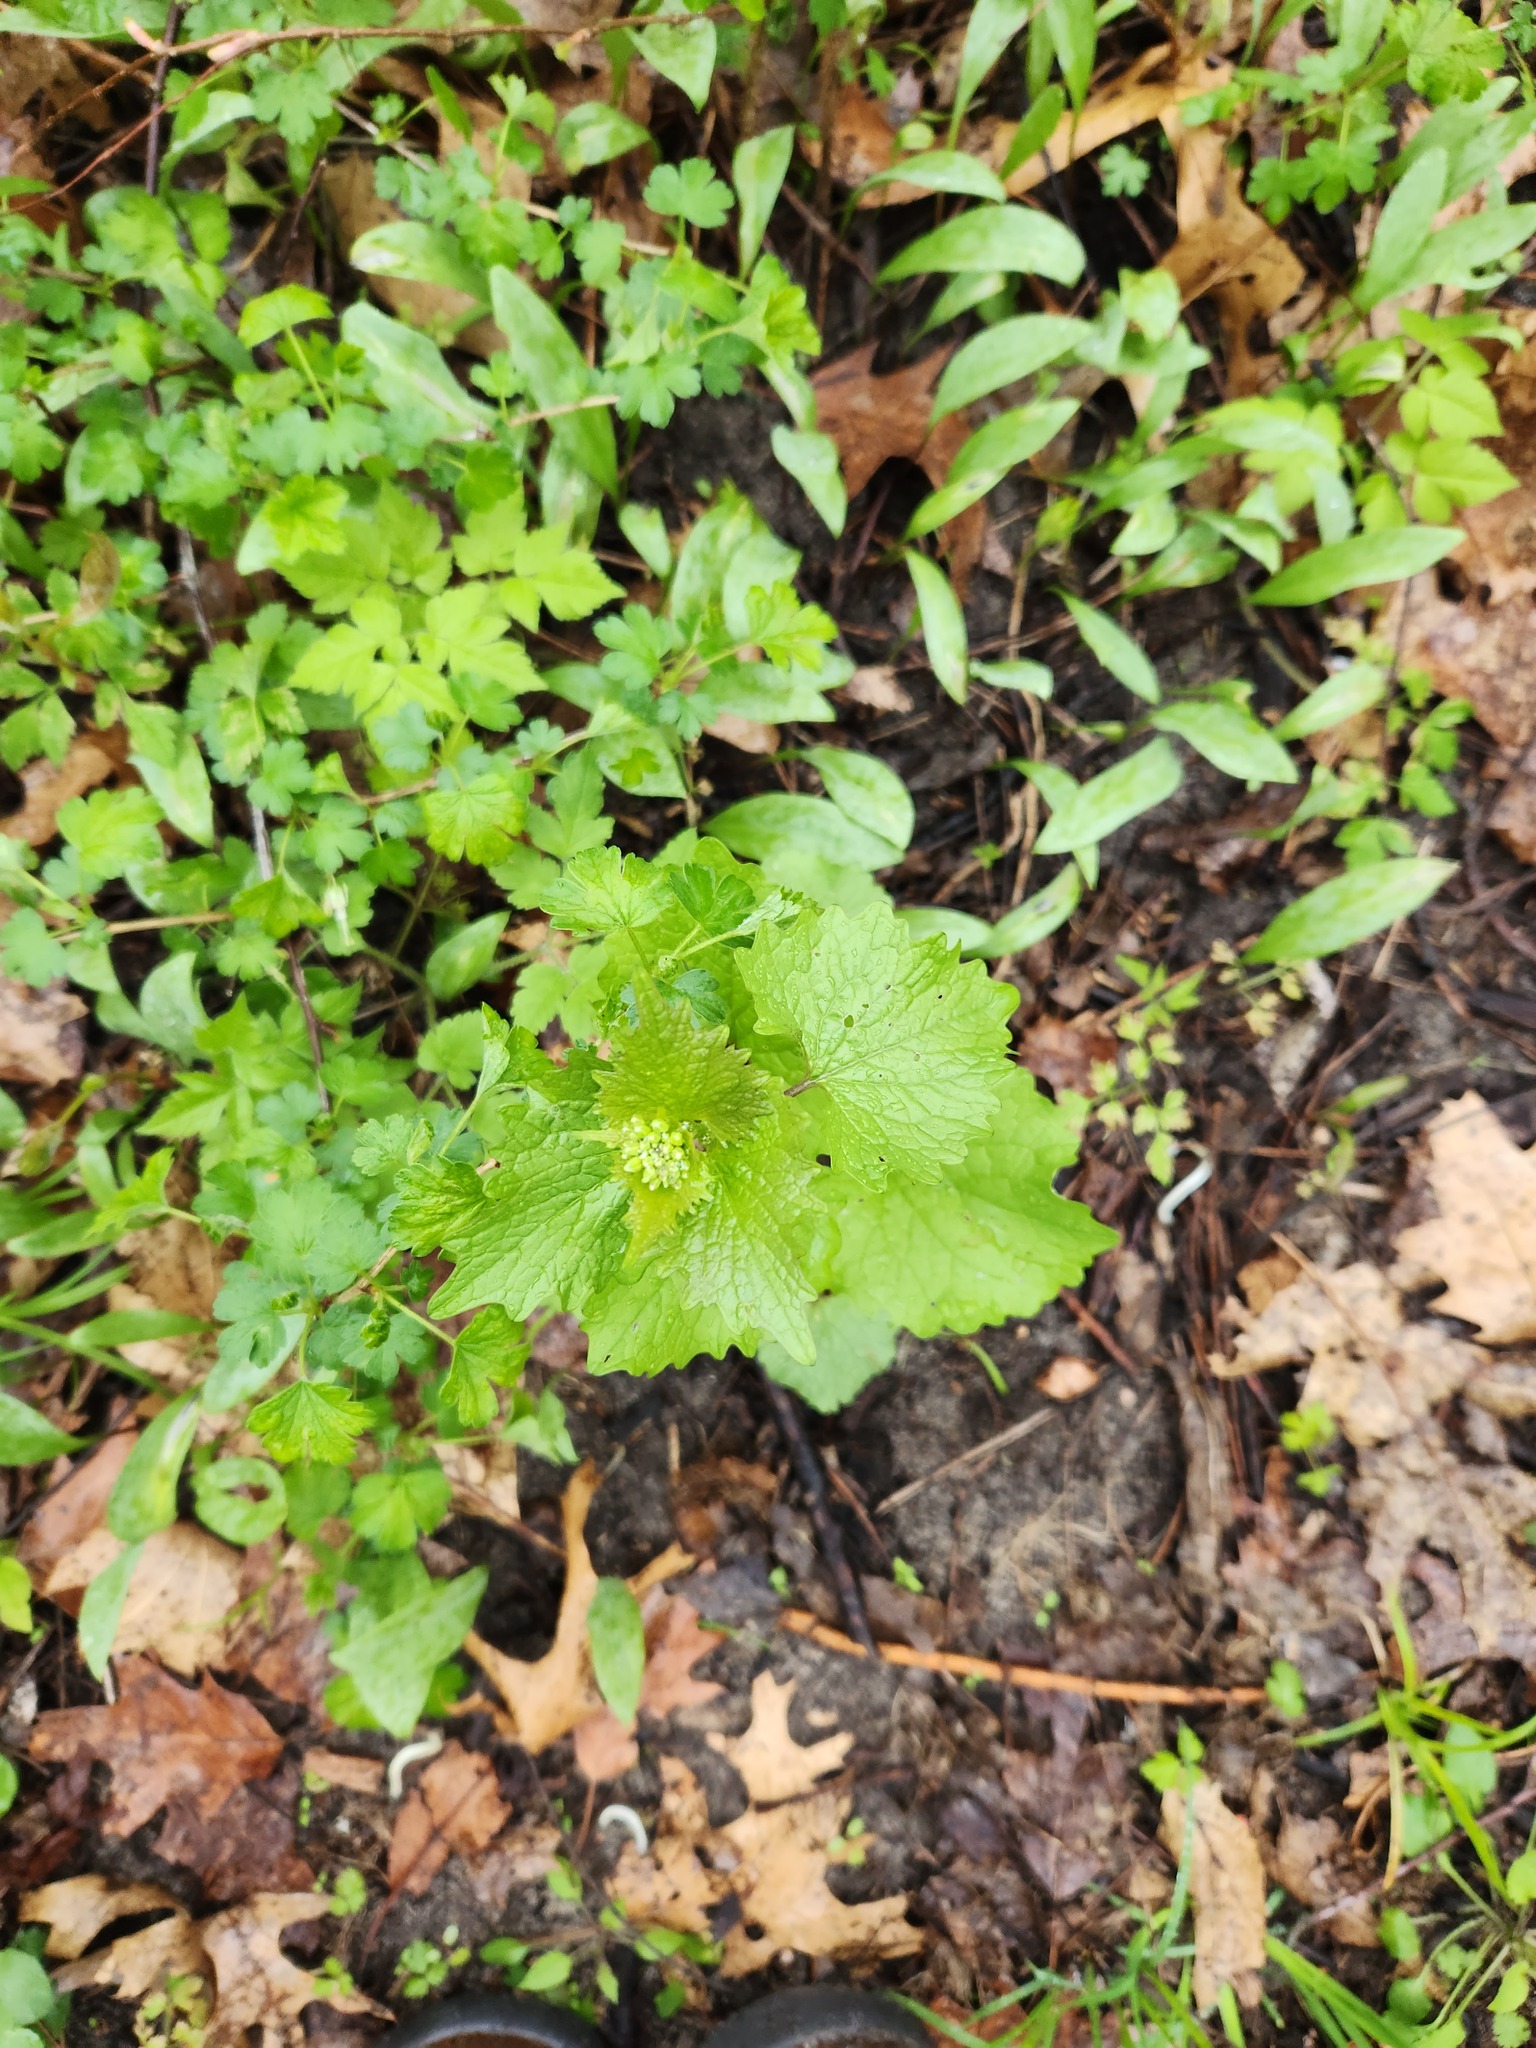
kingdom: Plantae
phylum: Tracheophyta
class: Magnoliopsida
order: Brassicales
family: Brassicaceae
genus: Alliaria
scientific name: Alliaria petiolata
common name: Garlic mustard
